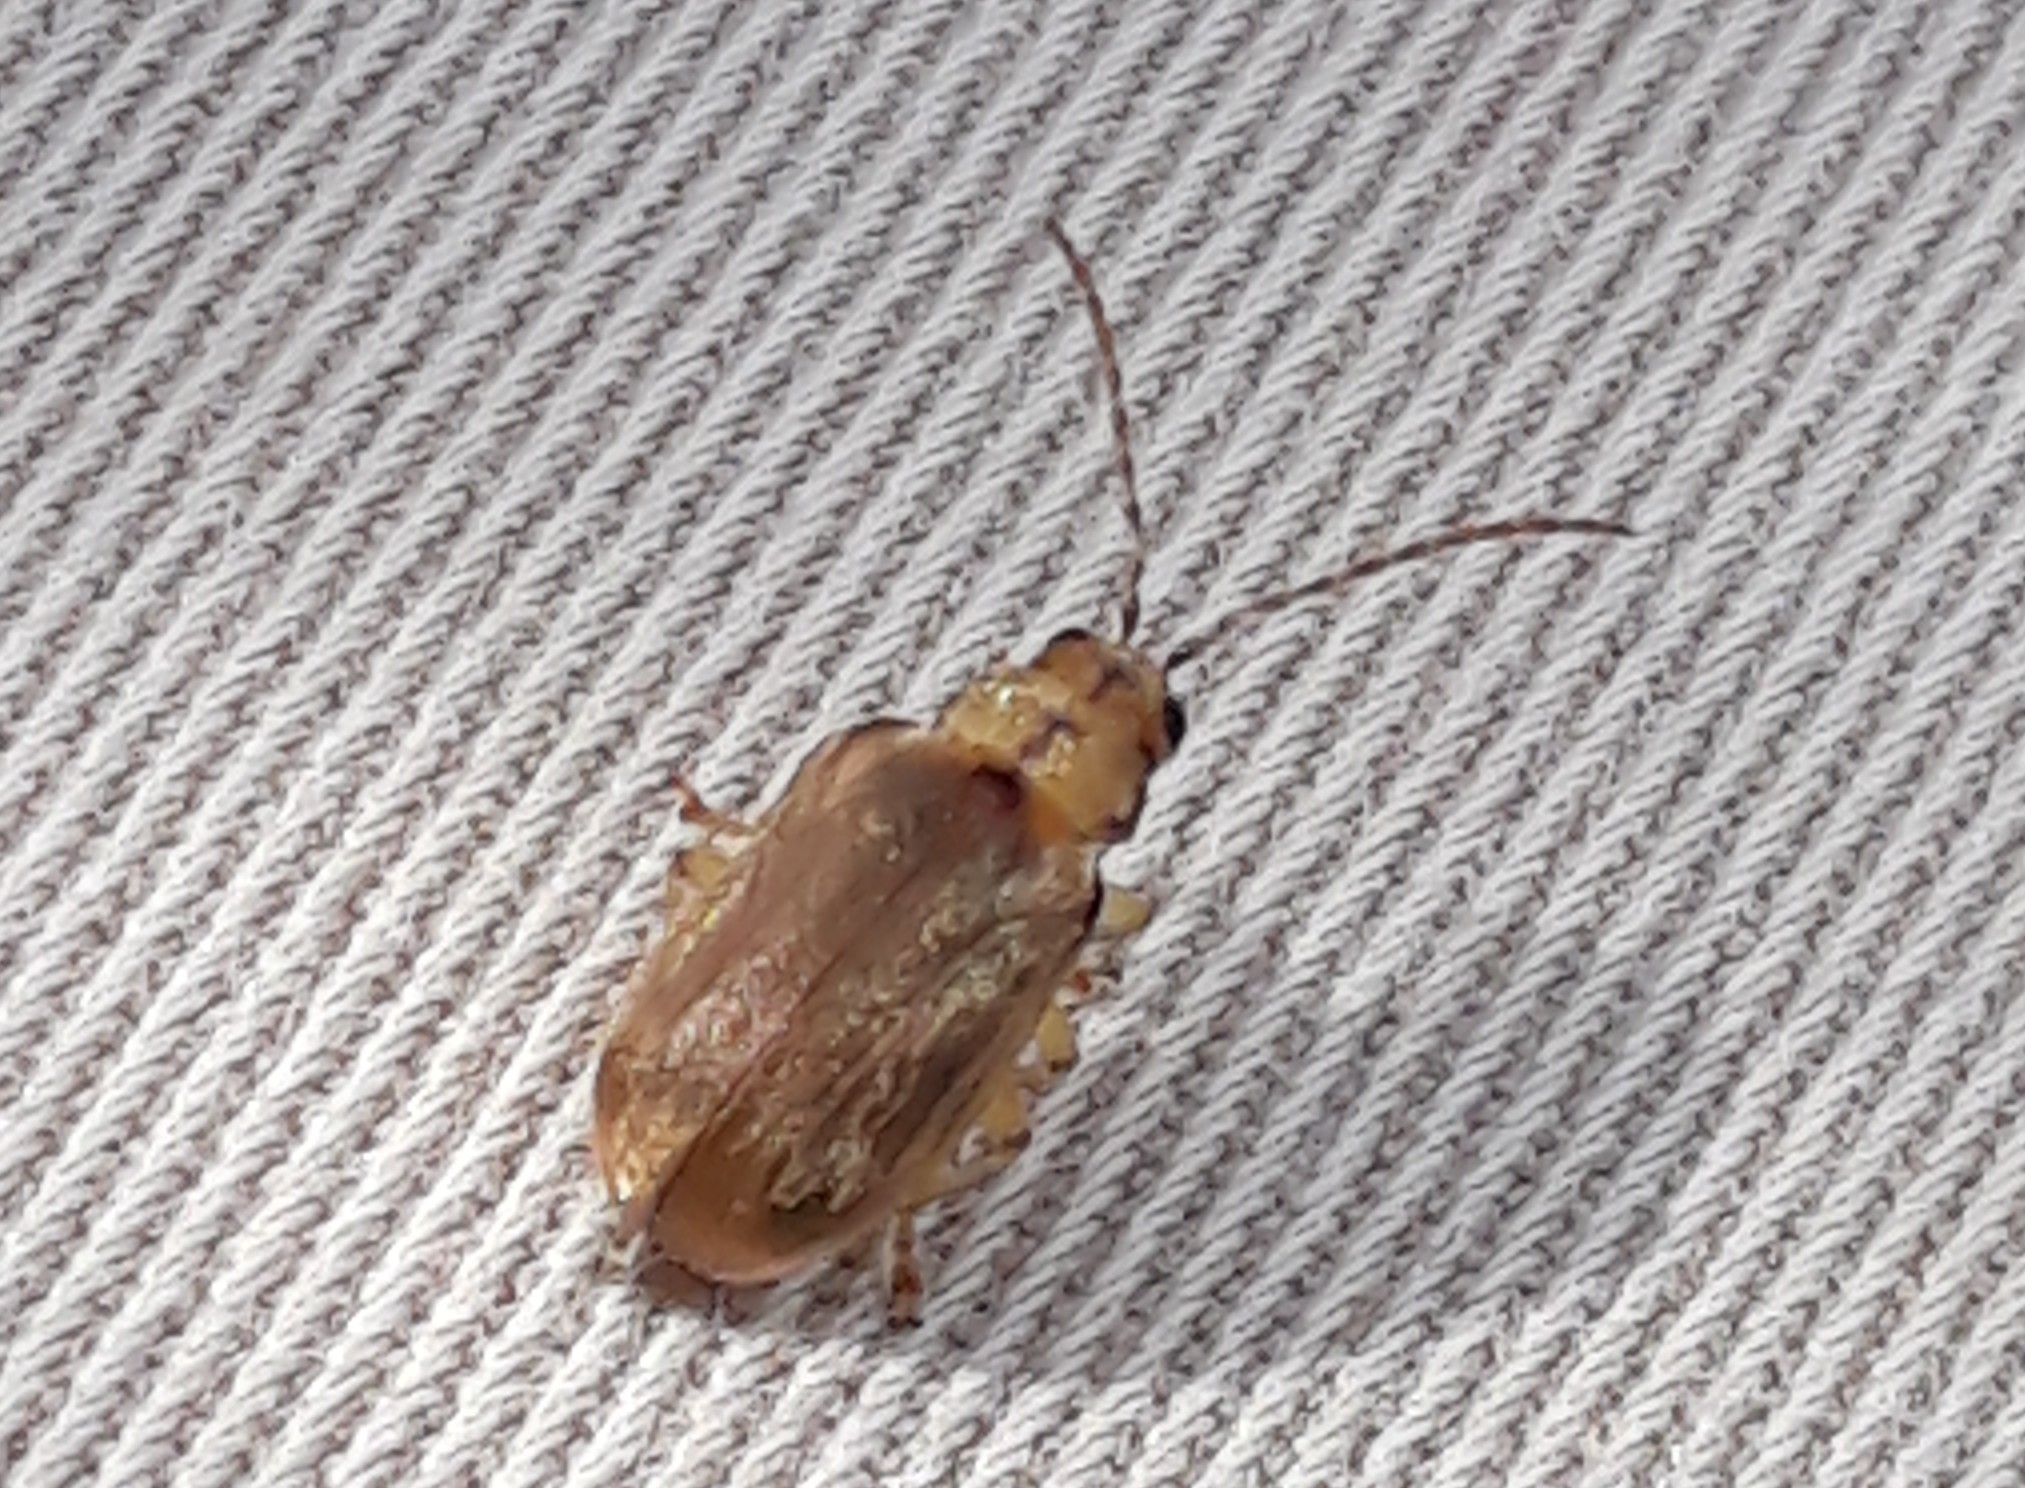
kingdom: Animalia
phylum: Arthropoda
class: Insecta
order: Coleoptera
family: Chrysomelidae
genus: Pyrrhalta
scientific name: Pyrrhalta viburni
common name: Guelder-rose leaf beetle
